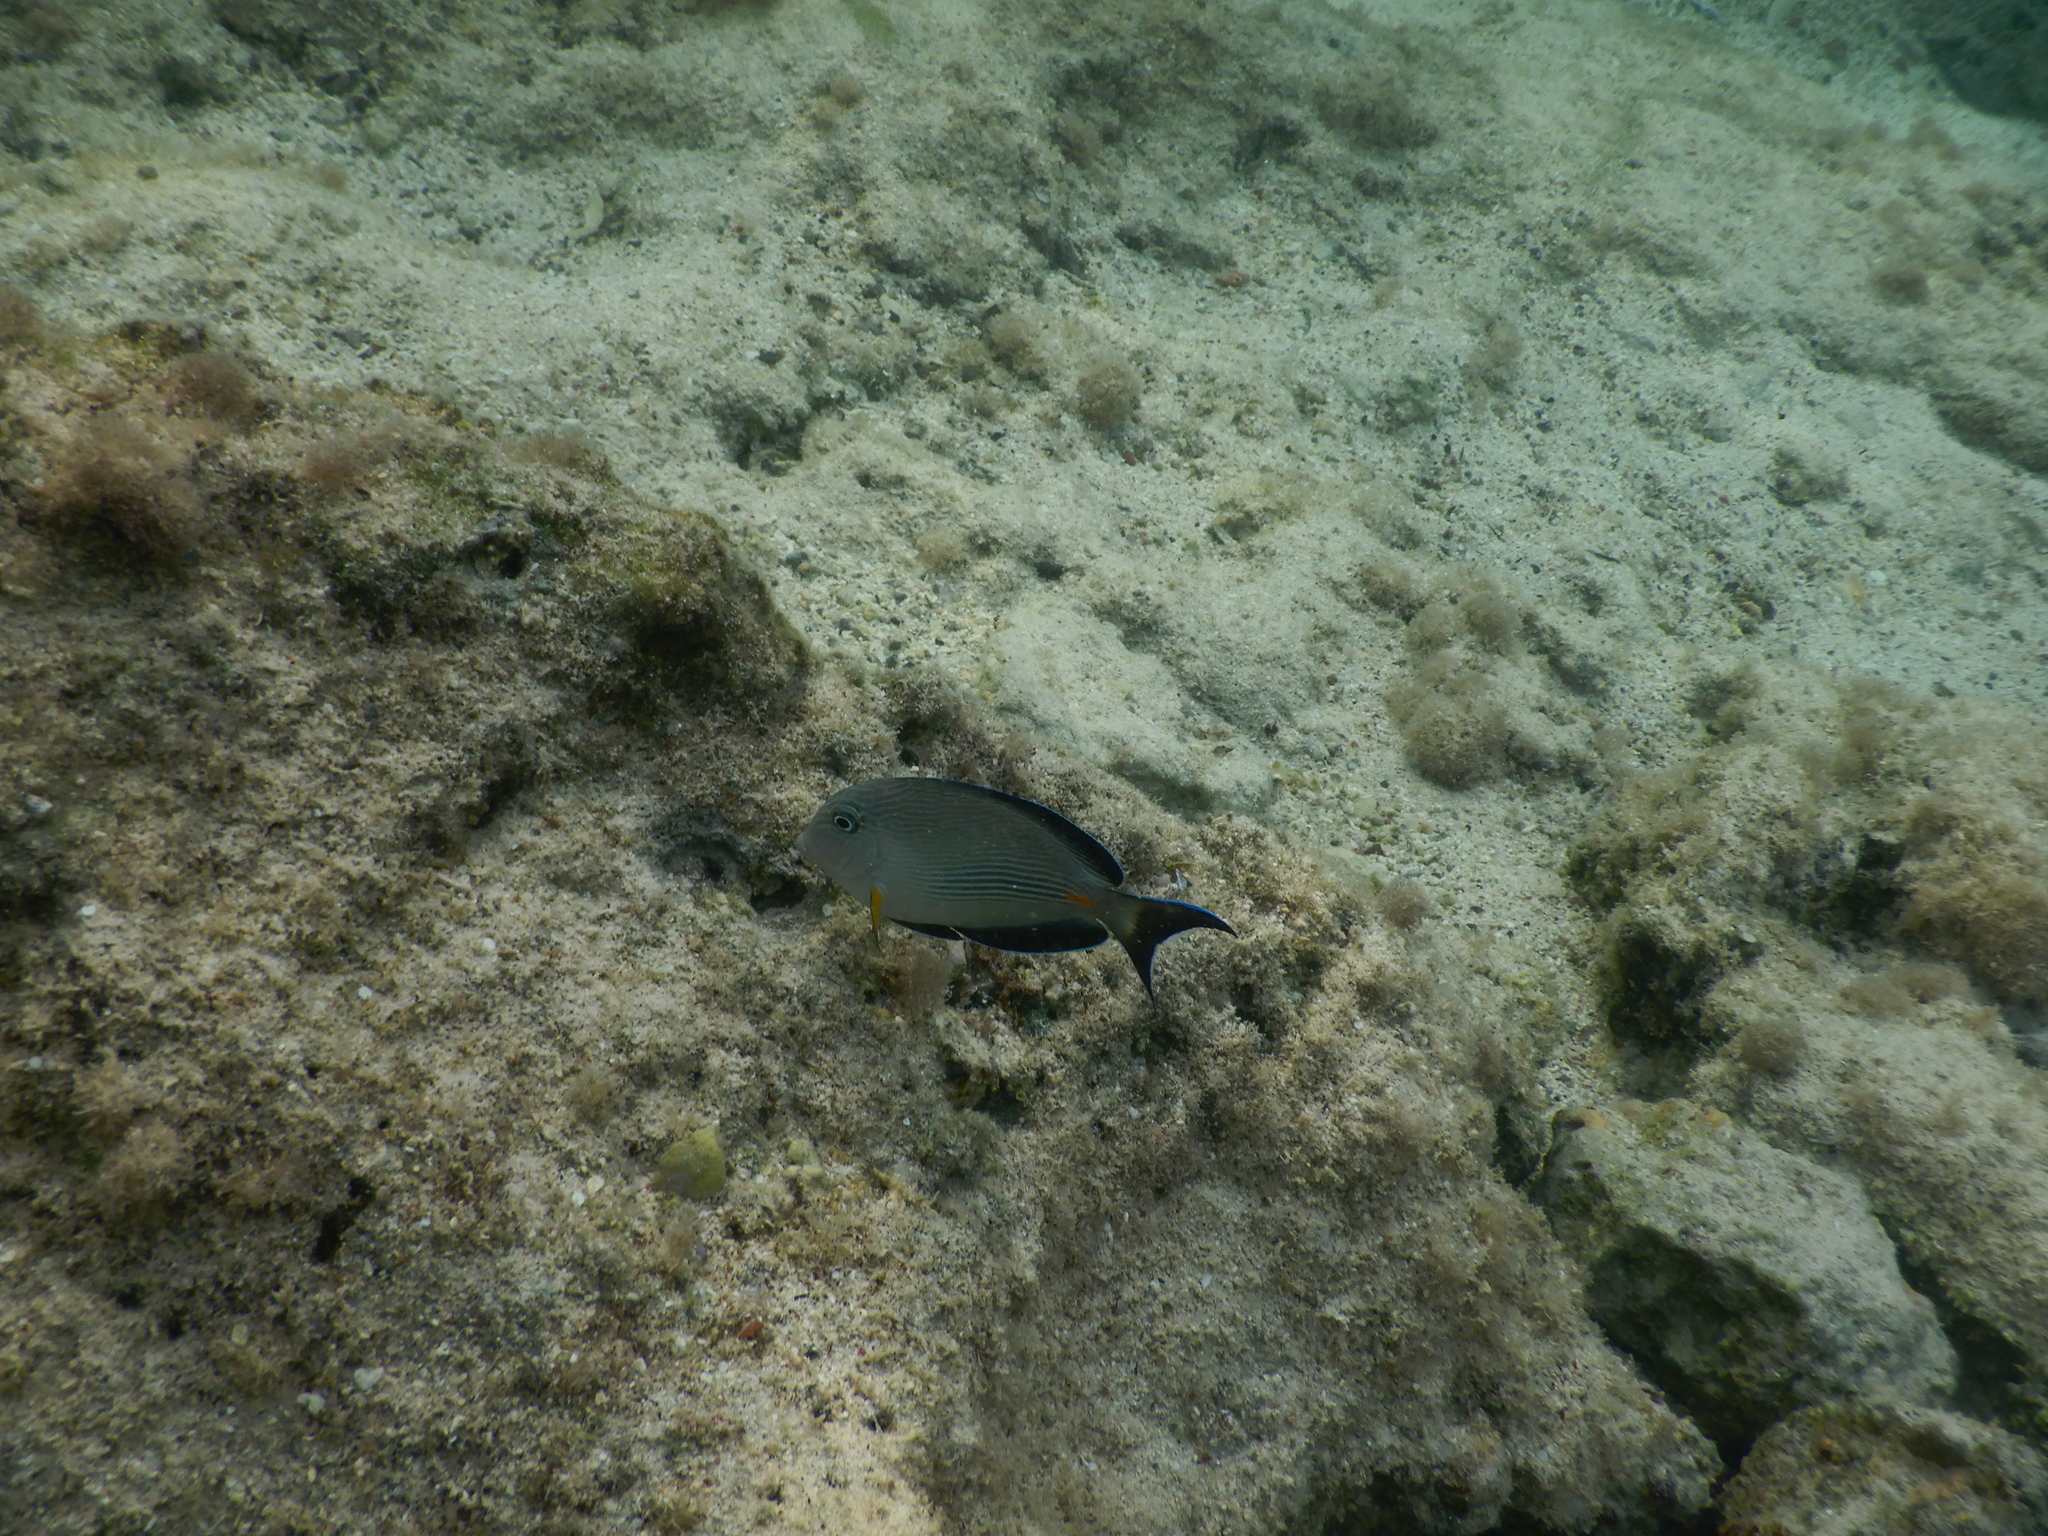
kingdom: Animalia
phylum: Chordata
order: Perciformes
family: Acanthuridae
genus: Acanthurus
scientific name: Acanthurus sohal
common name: Red sea surgeonfish
